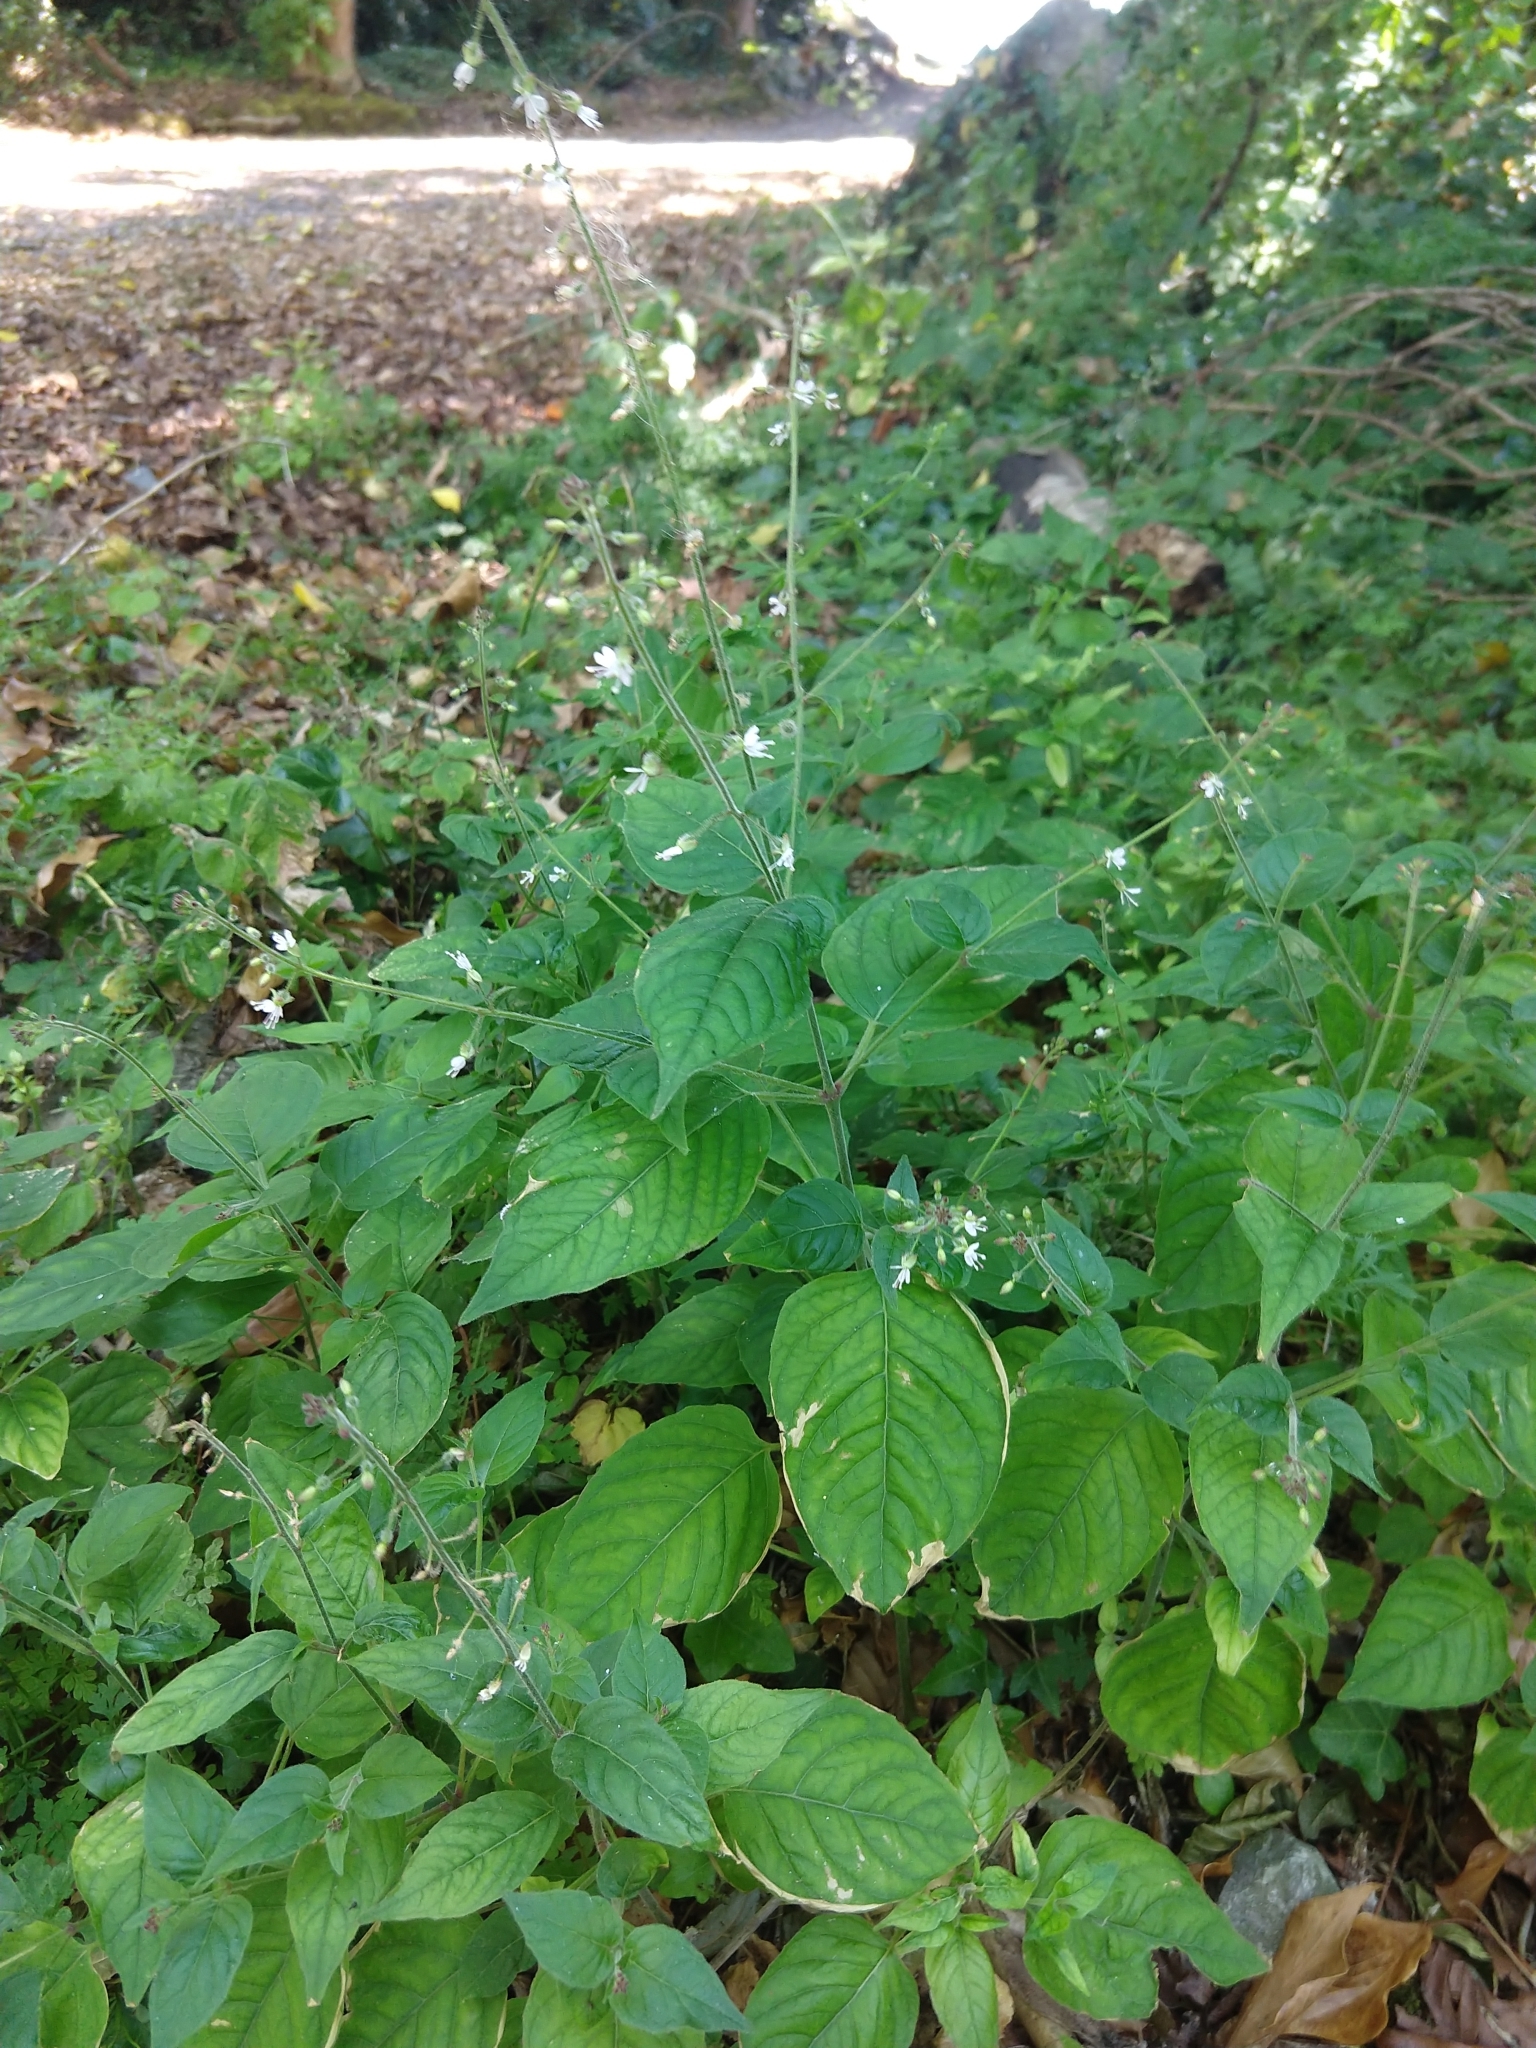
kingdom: Plantae
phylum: Tracheophyta
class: Magnoliopsida
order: Myrtales
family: Onagraceae
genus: Circaea
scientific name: Circaea lutetiana
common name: Enchanter's-nightshade
